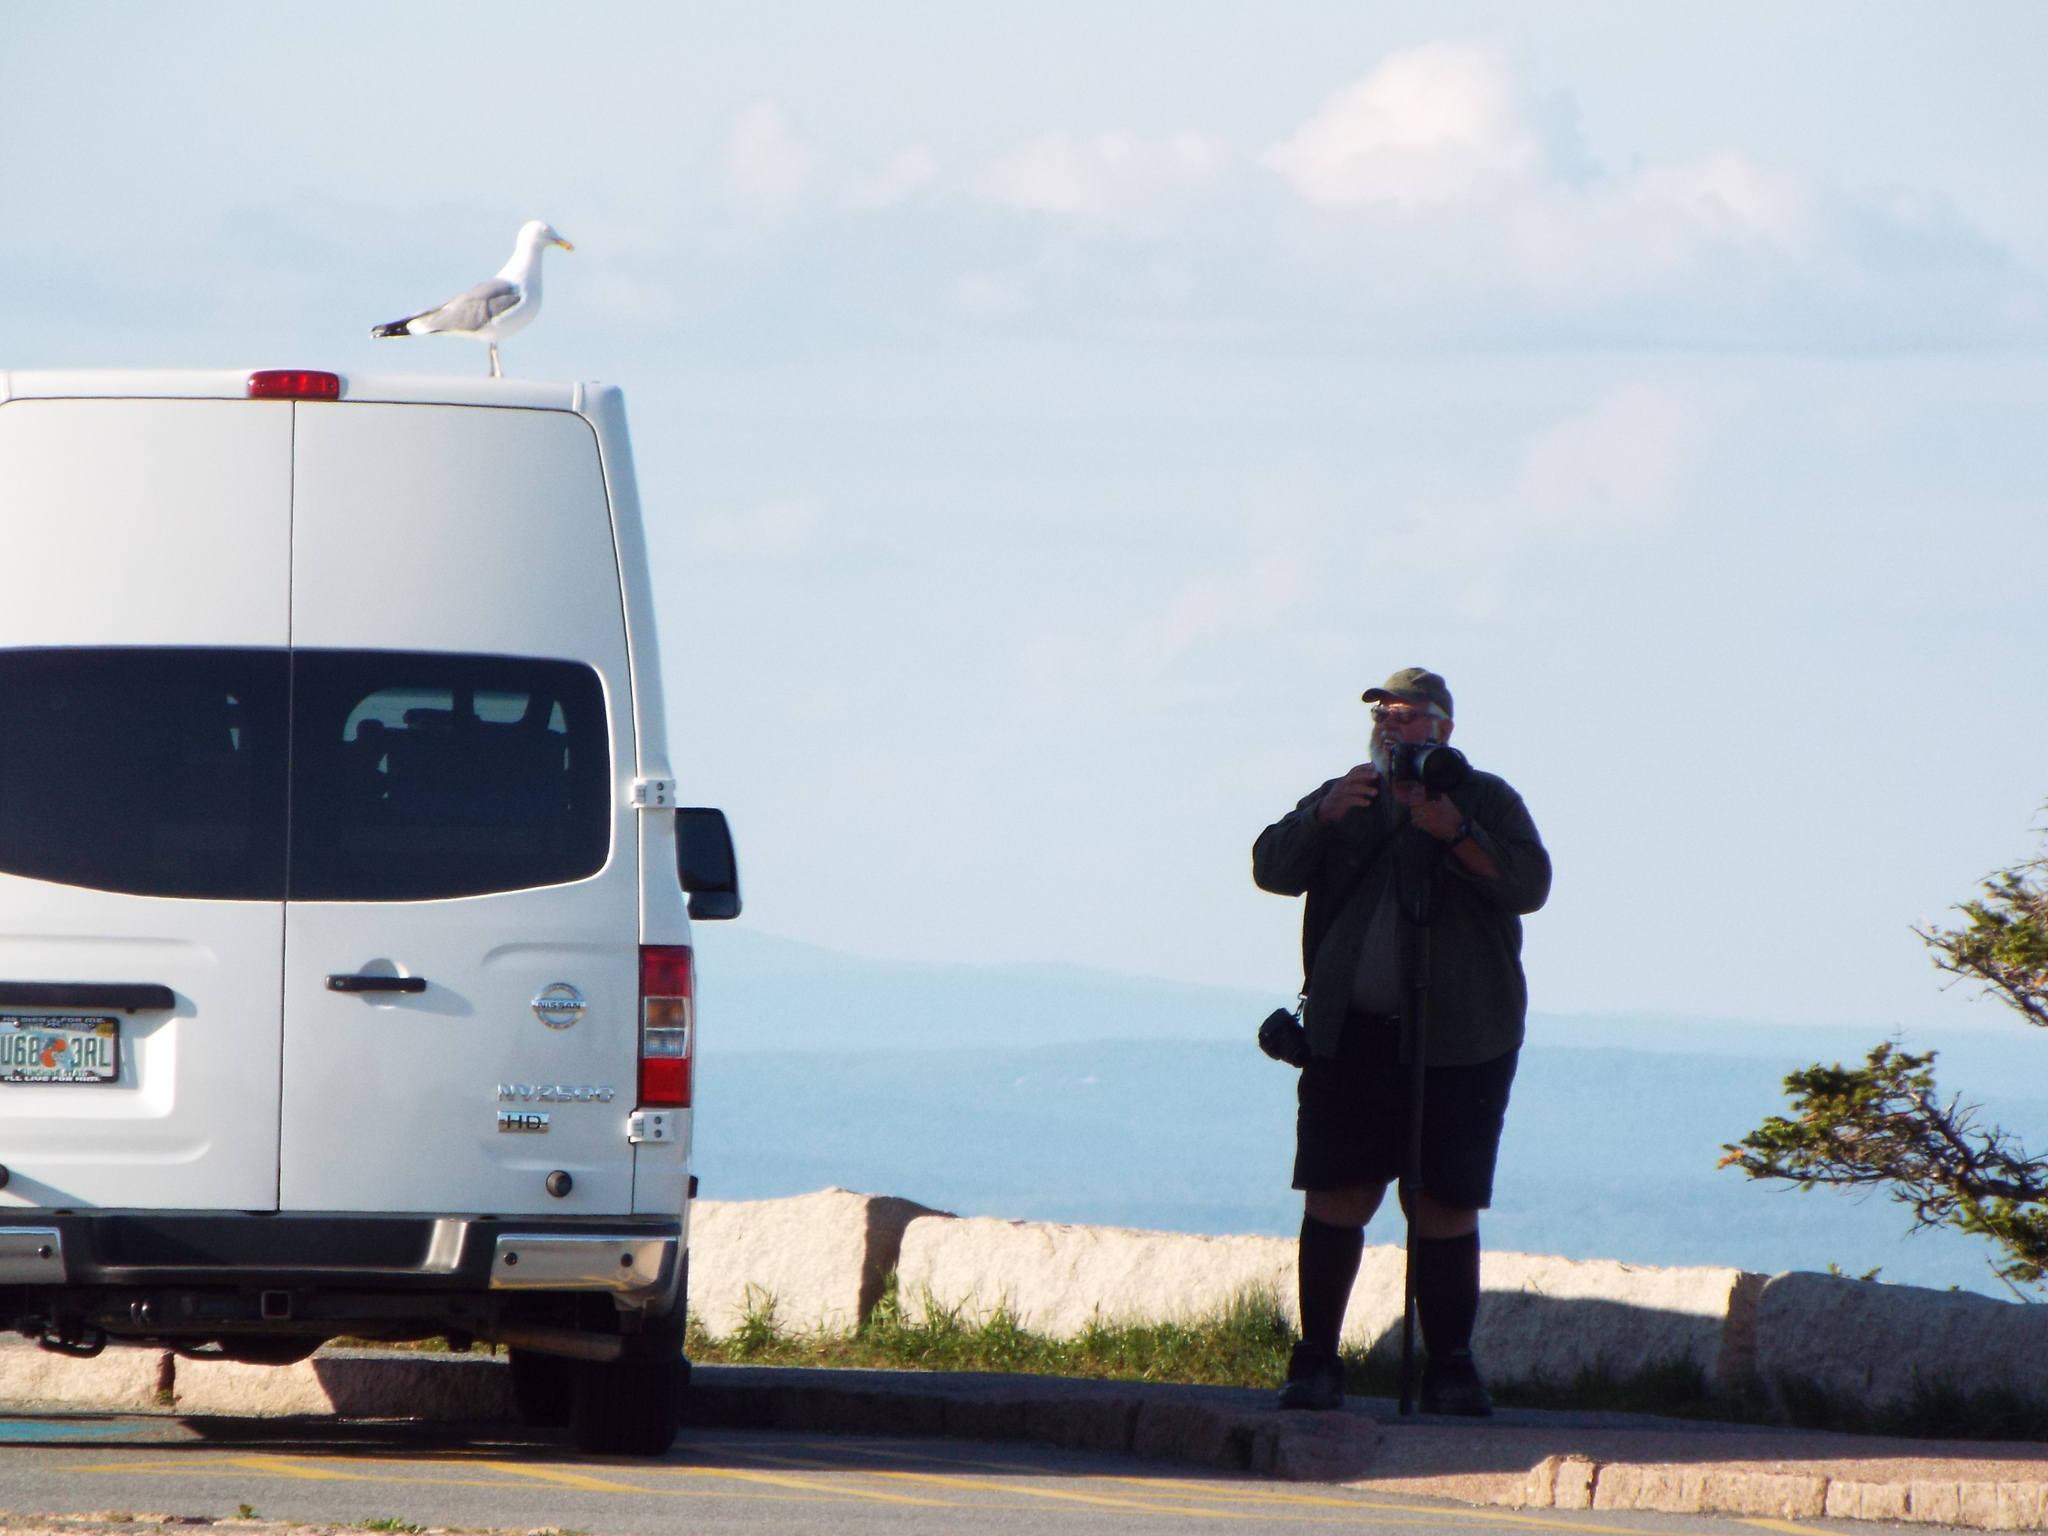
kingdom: Animalia
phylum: Chordata
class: Aves
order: Charadriiformes
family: Laridae
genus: Larus
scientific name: Larus argentatus
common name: Herring gull
